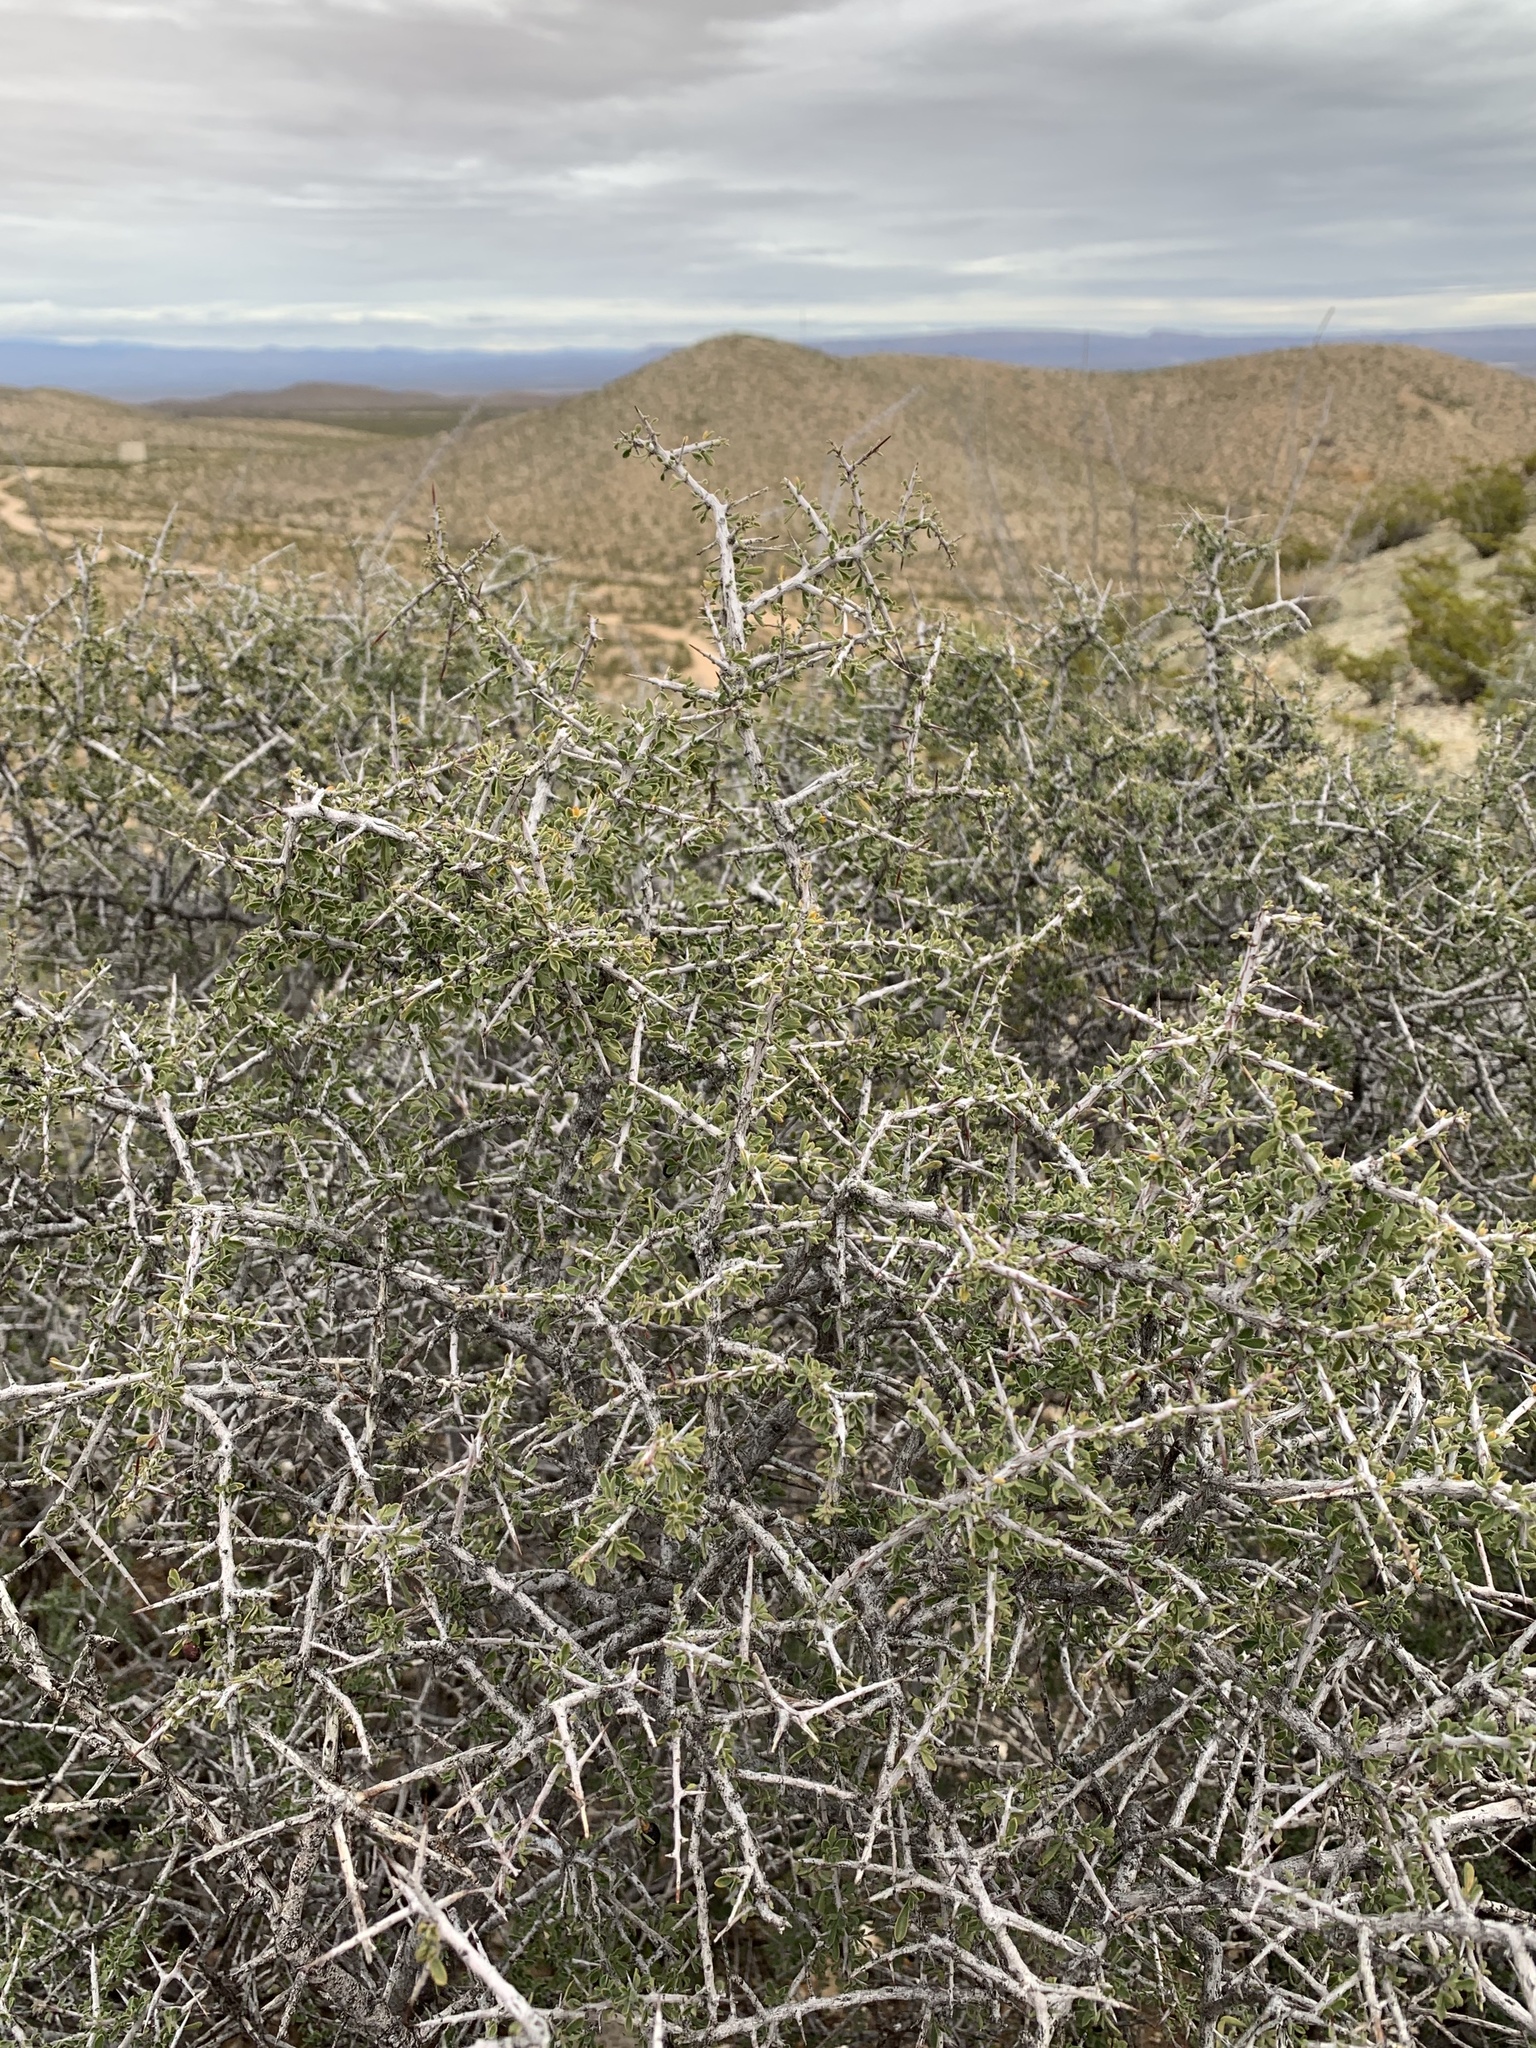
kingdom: Plantae
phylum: Tracheophyta
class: Magnoliopsida
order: Rosales
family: Rhamnaceae
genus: Condalia
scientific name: Condalia warnockii
